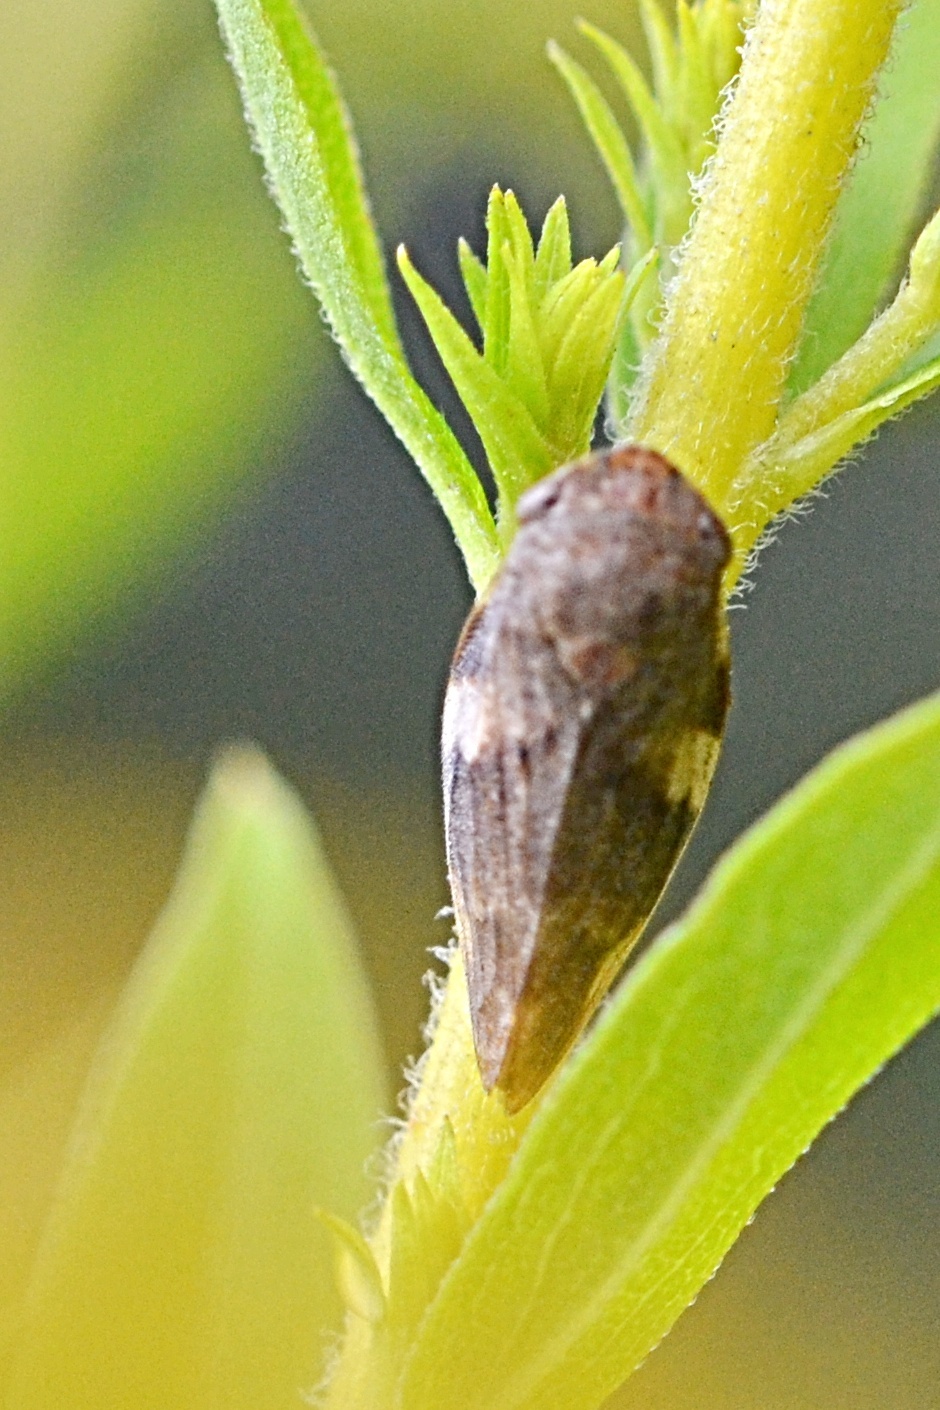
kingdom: Animalia
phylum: Arthropoda
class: Insecta
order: Hemiptera
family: Aphrophoridae
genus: Aphrophora
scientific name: Aphrophora alni
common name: European alder spittlebug
